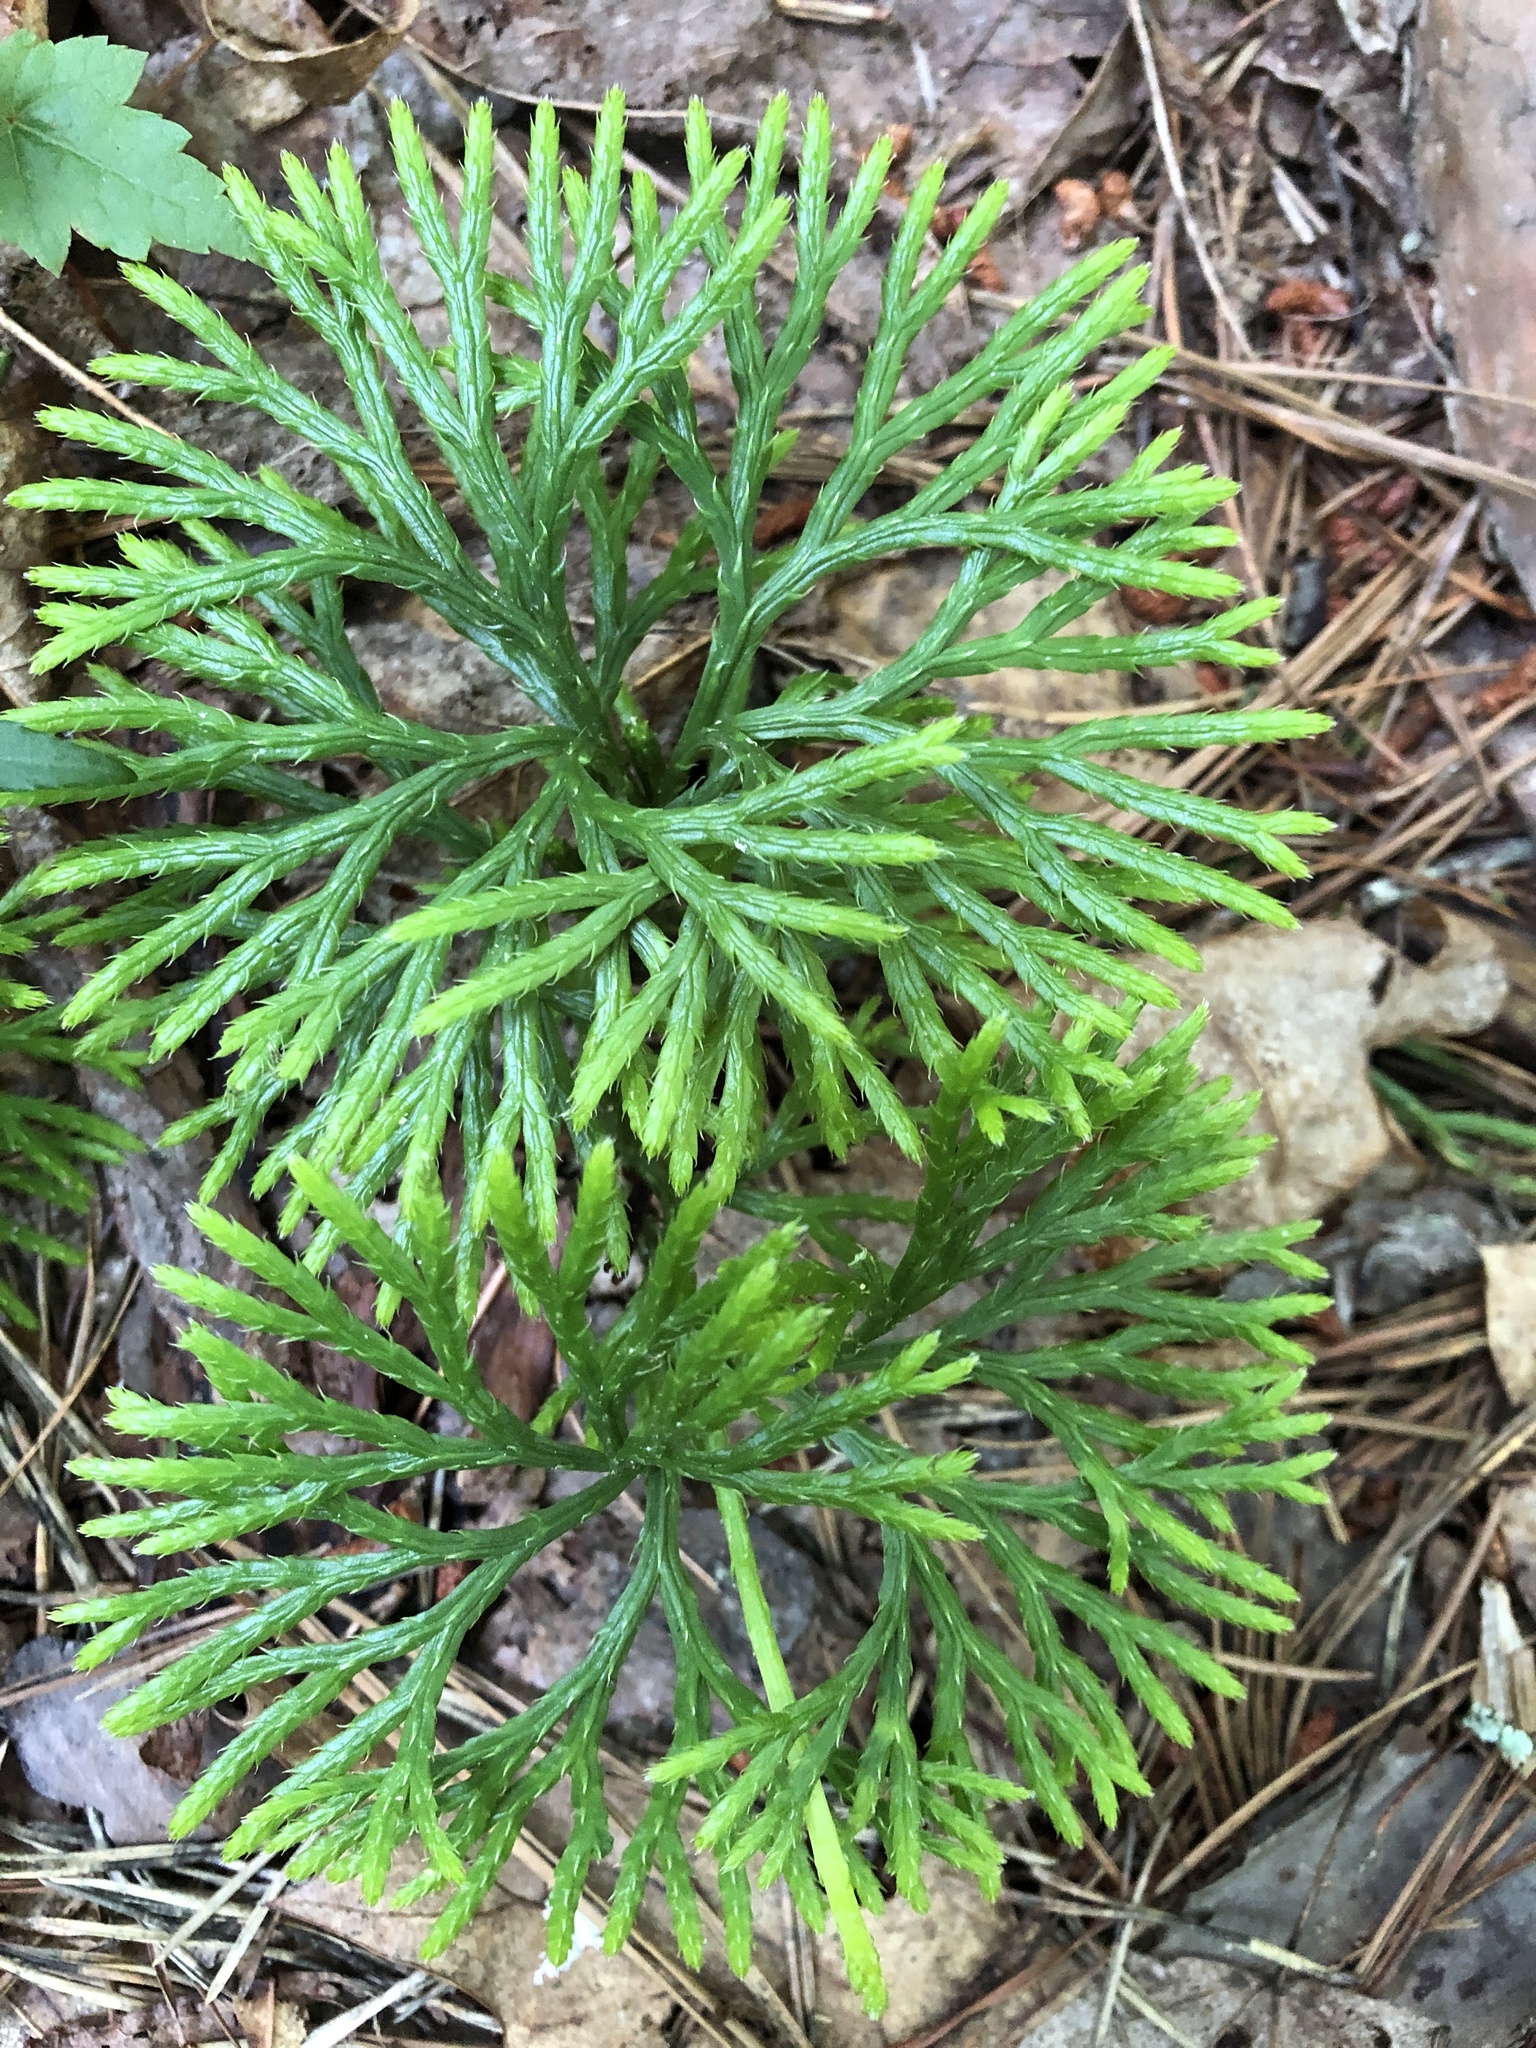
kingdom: Plantae
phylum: Tracheophyta
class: Lycopodiopsida
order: Lycopodiales
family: Lycopodiaceae
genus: Diphasiastrum
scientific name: Diphasiastrum digitatum
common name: Southern running-pine
